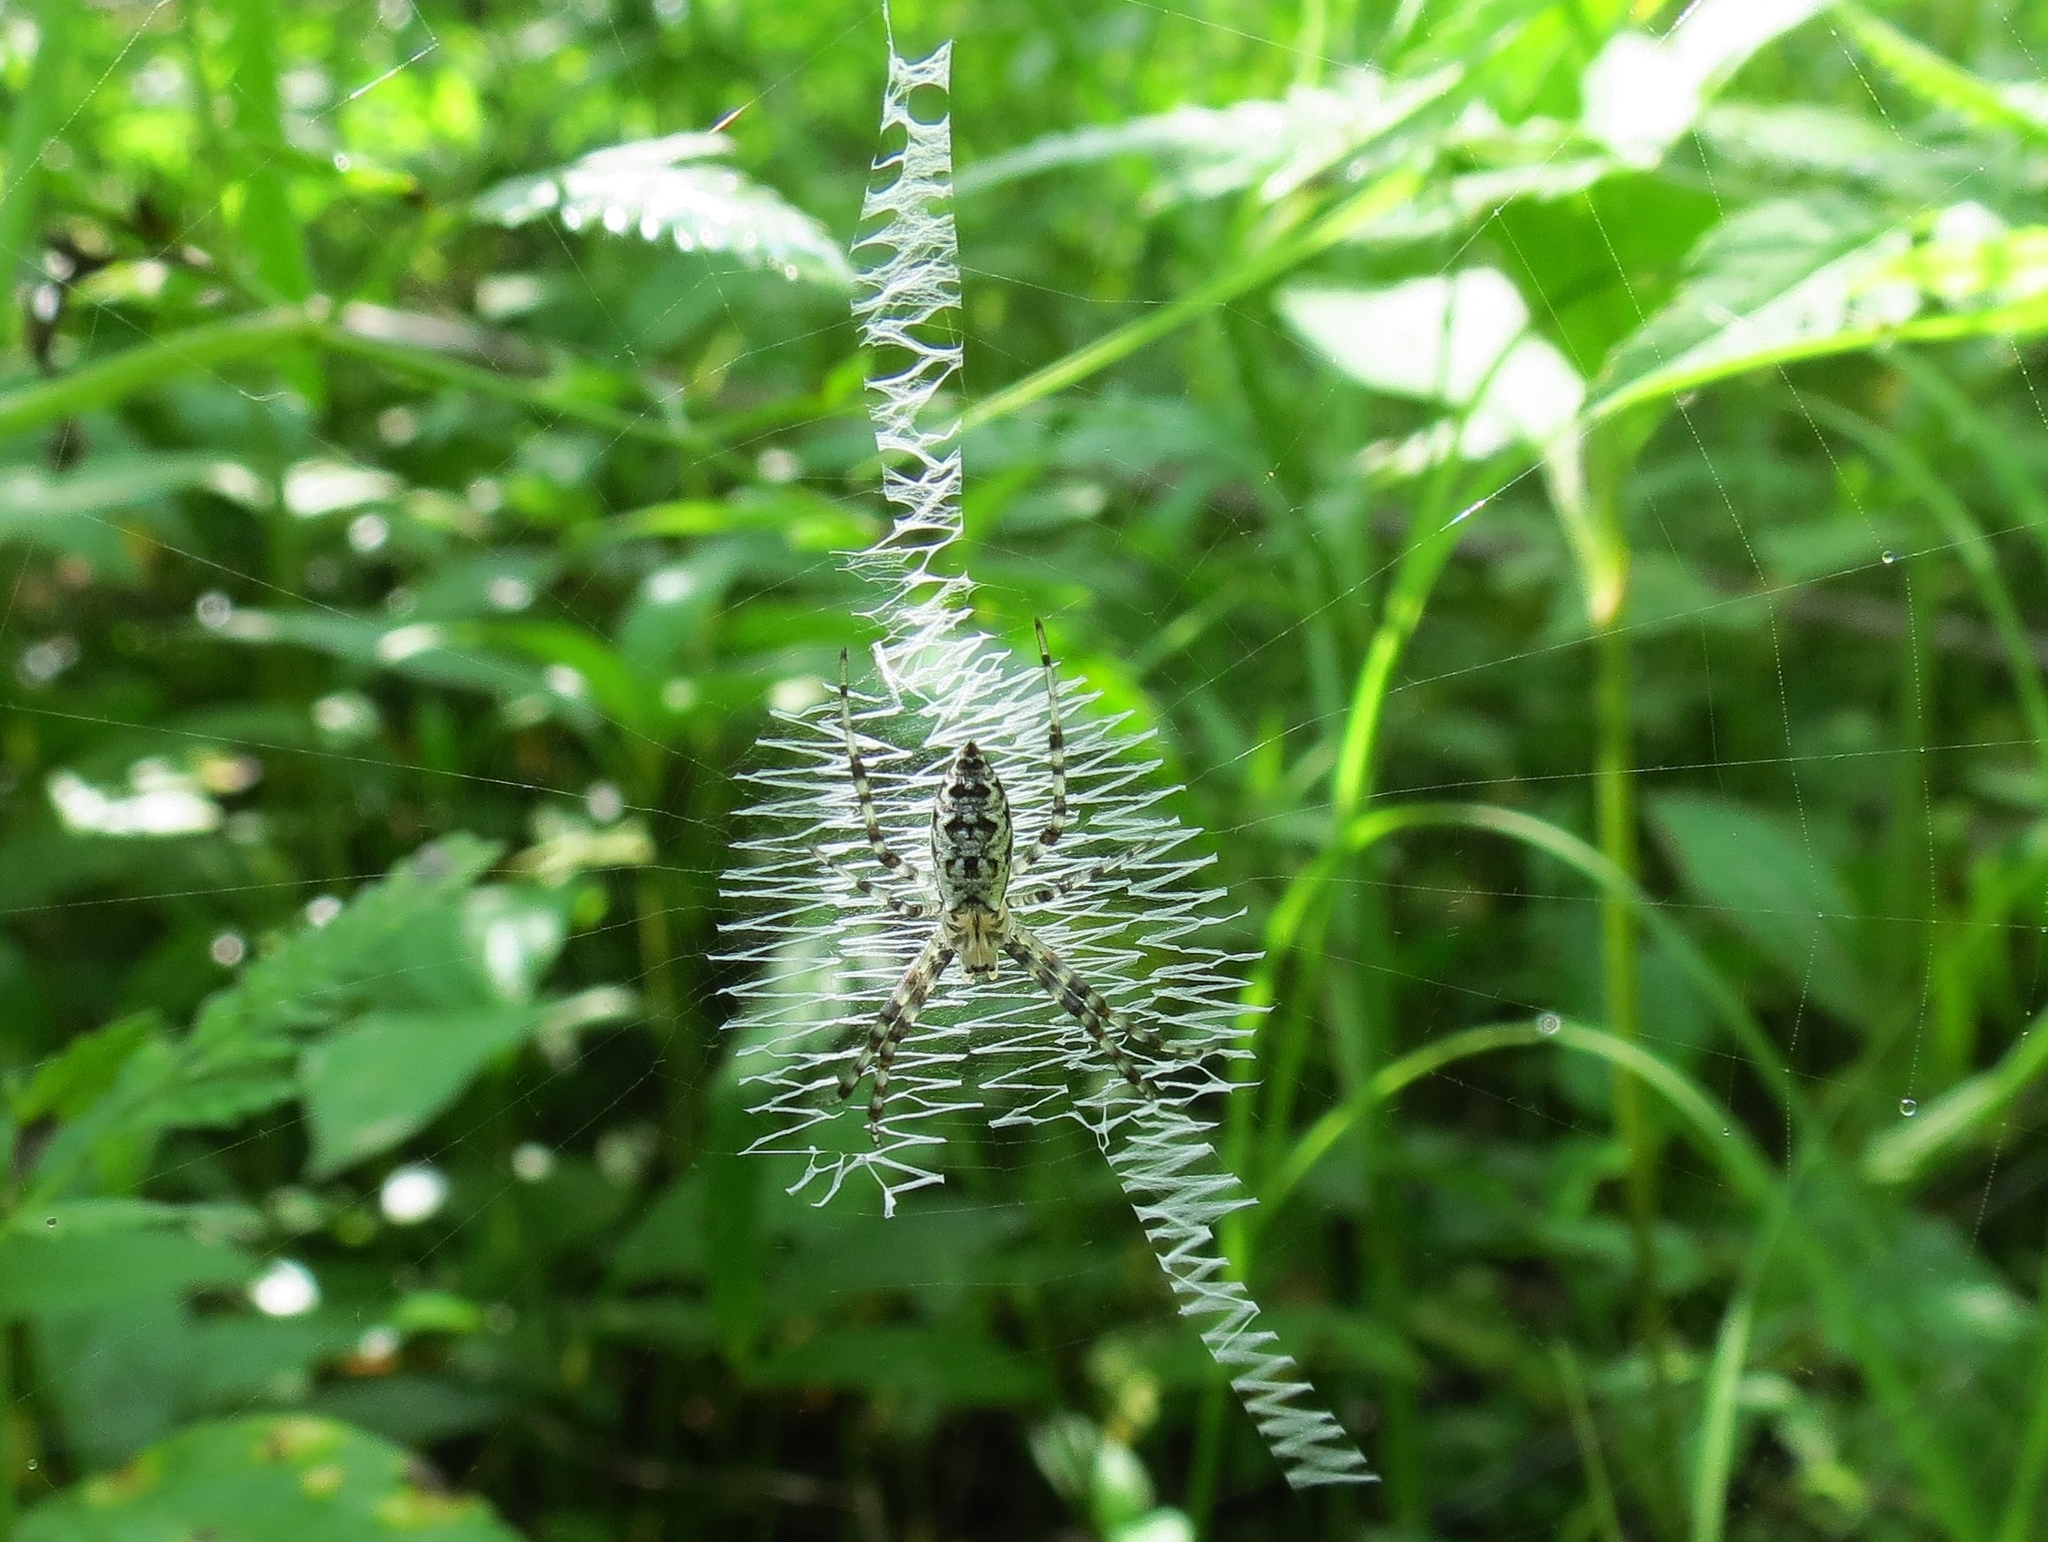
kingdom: Animalia
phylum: Arthropoda
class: Arachnida
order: Araneae
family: Araneidae
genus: Argiope
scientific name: Argiope aurantia
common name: Orb weavers
